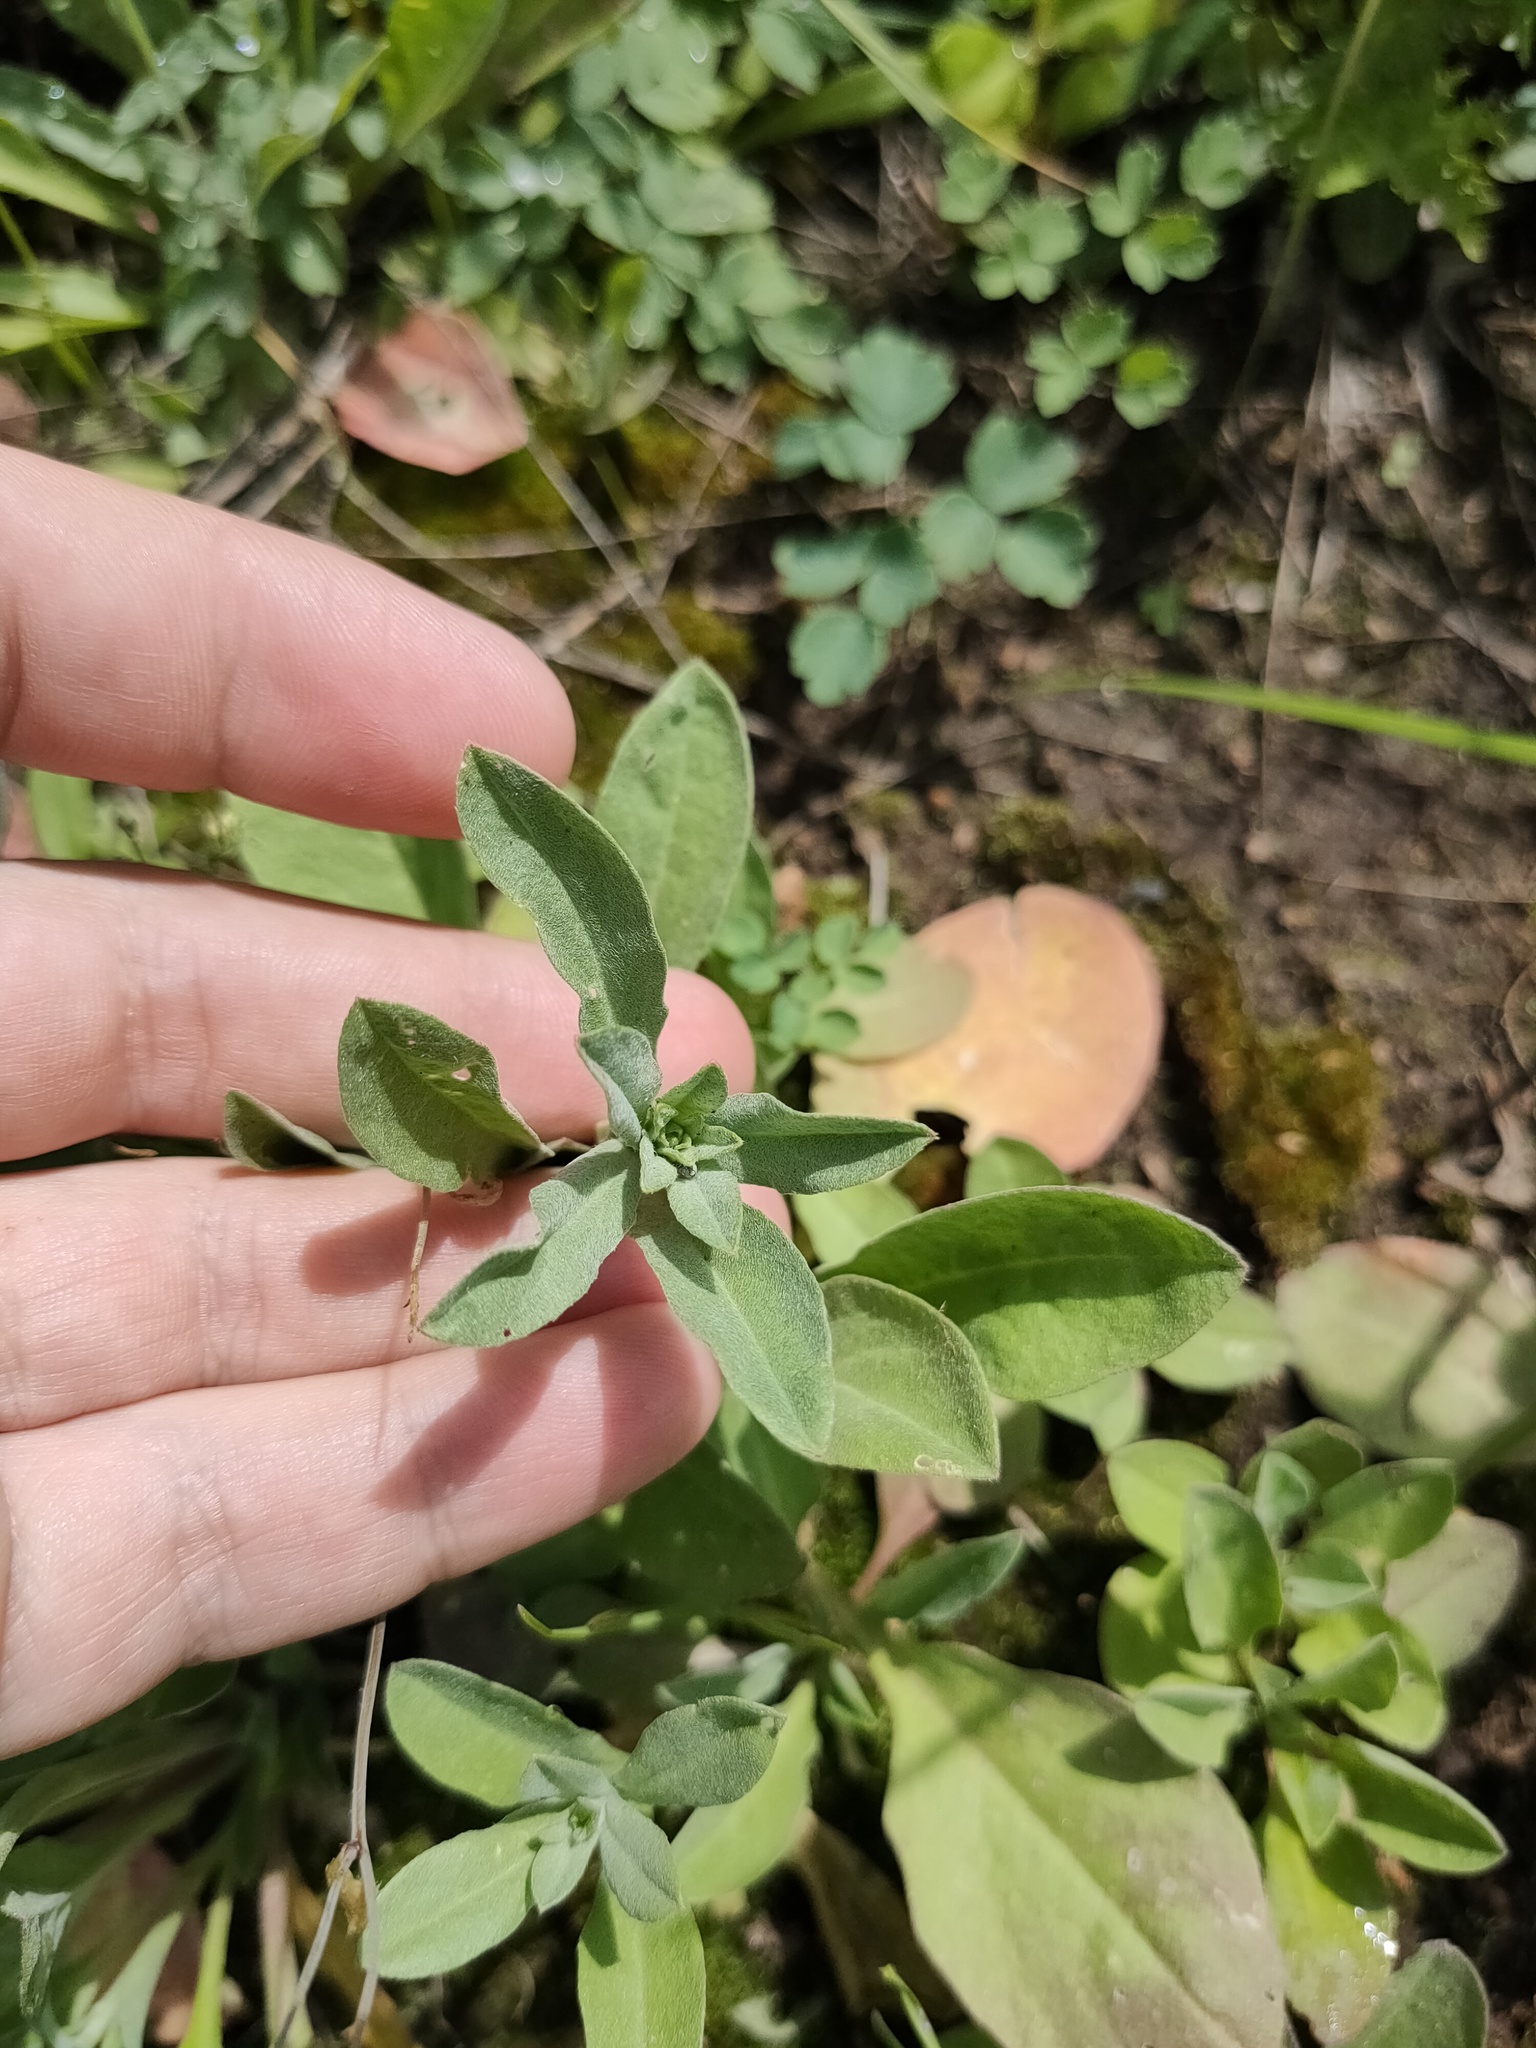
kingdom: Plantae
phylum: Tracheophyta
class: Magnoliopsida
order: Brassicales
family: Brassicaceae
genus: Berteroa
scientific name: Berteroa incana
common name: Hoary alison
